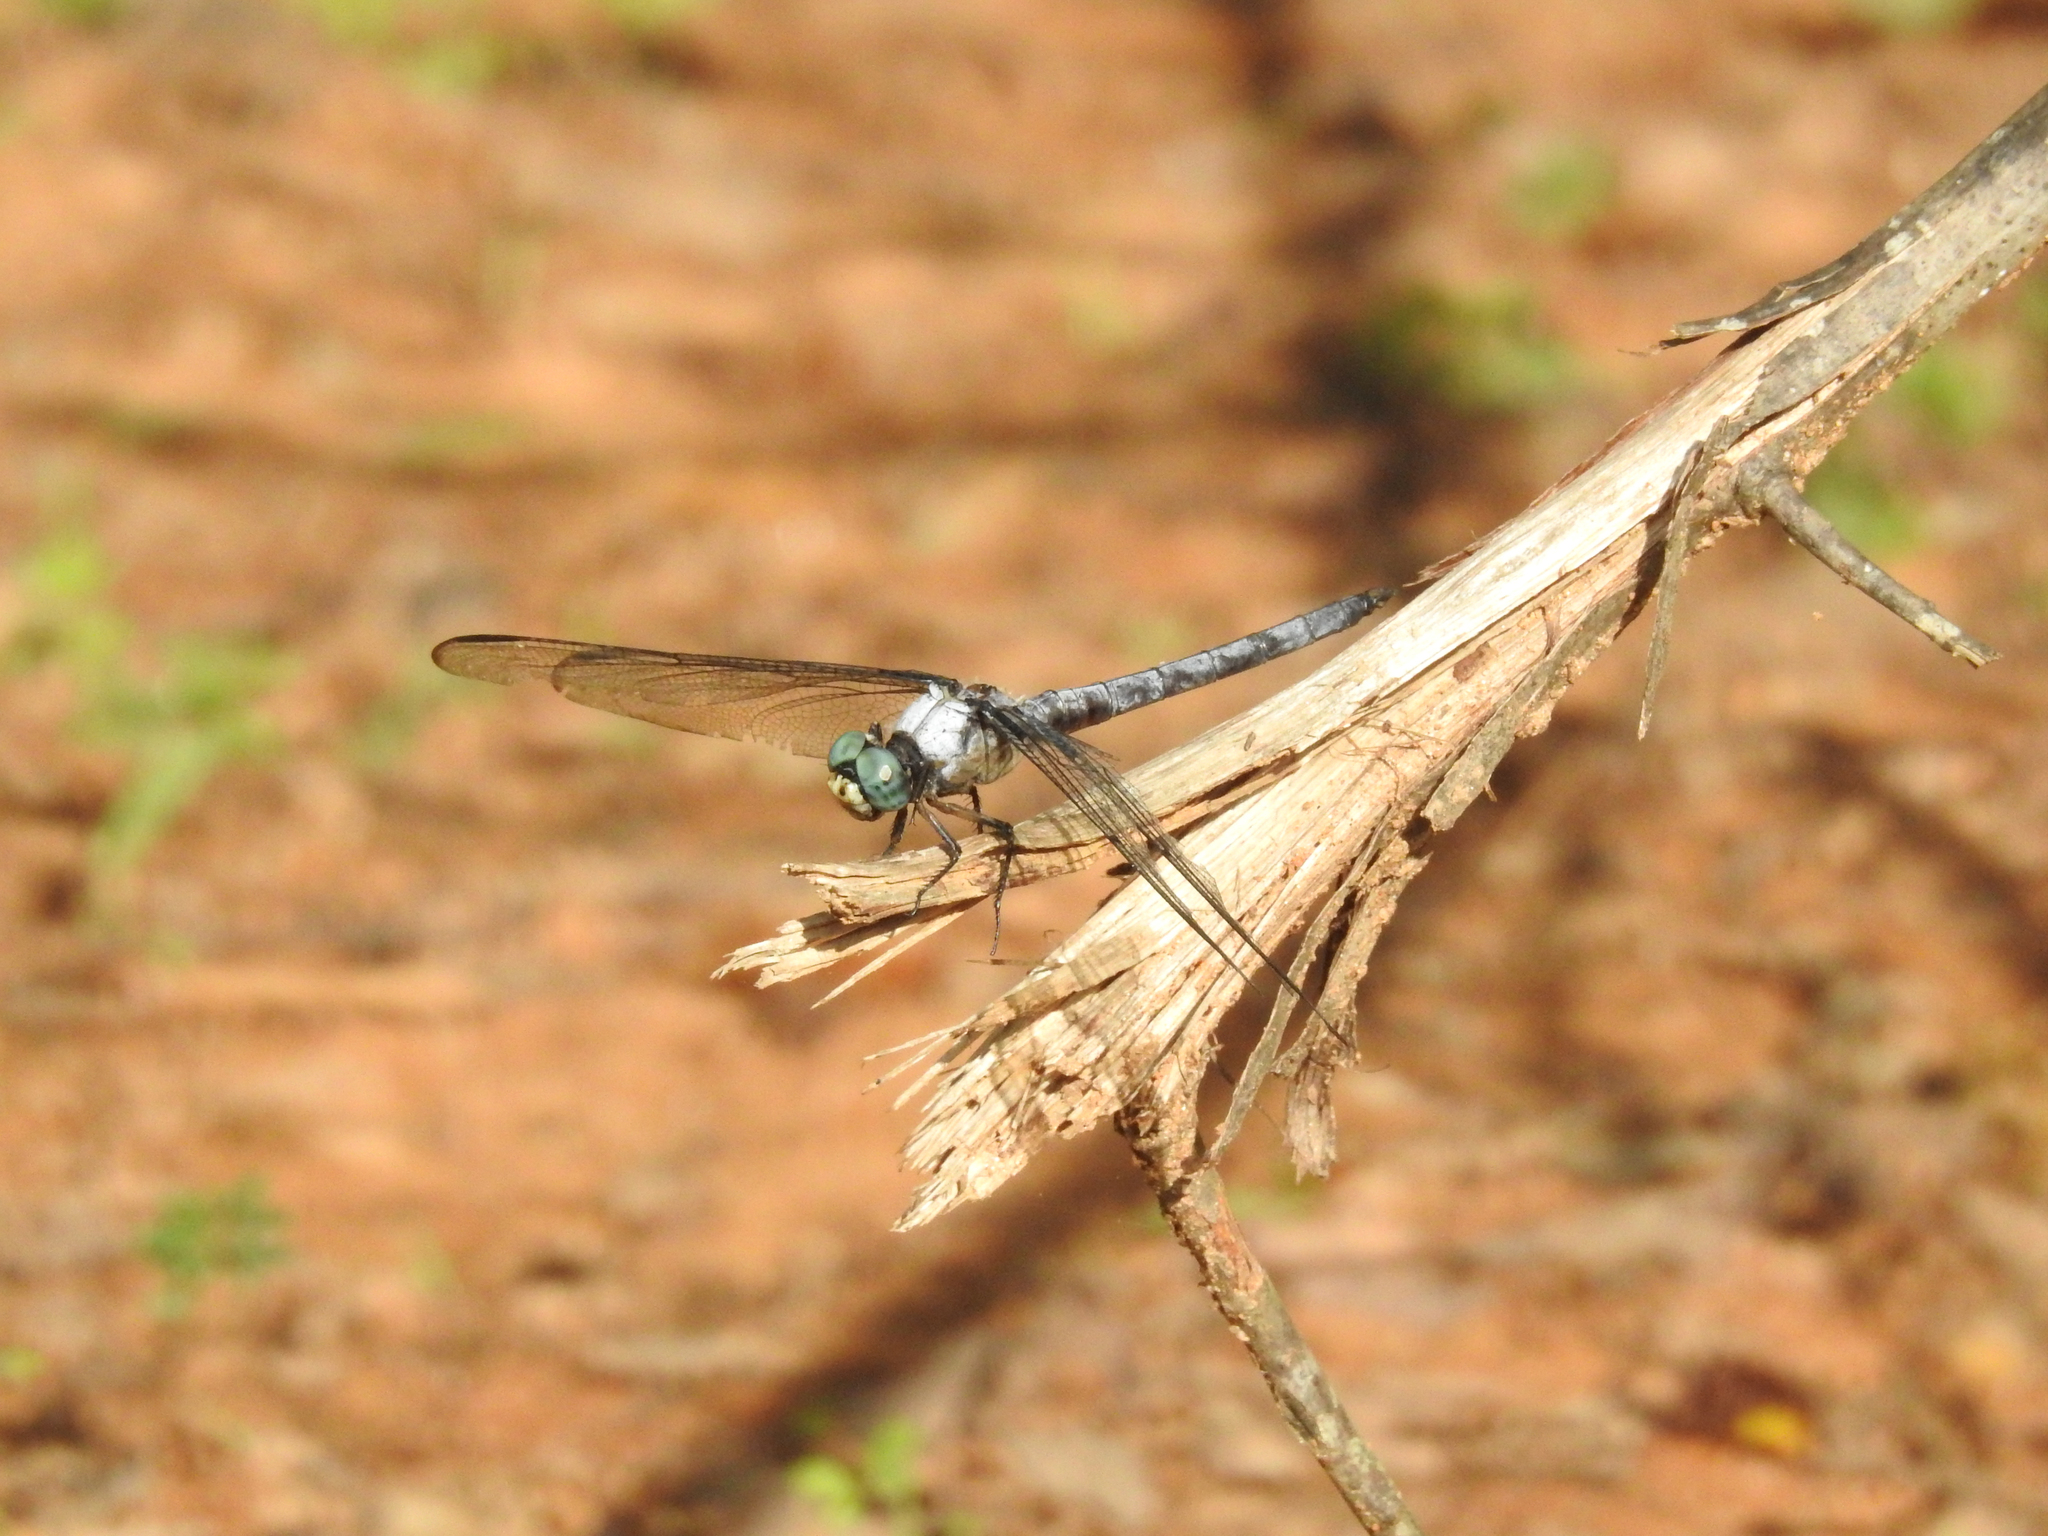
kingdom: Animalia
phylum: Arthropoda
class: Insecta
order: Odonata
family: Libellulidae
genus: Libellula
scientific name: Libellula vibrans
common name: Great blue skimmer
